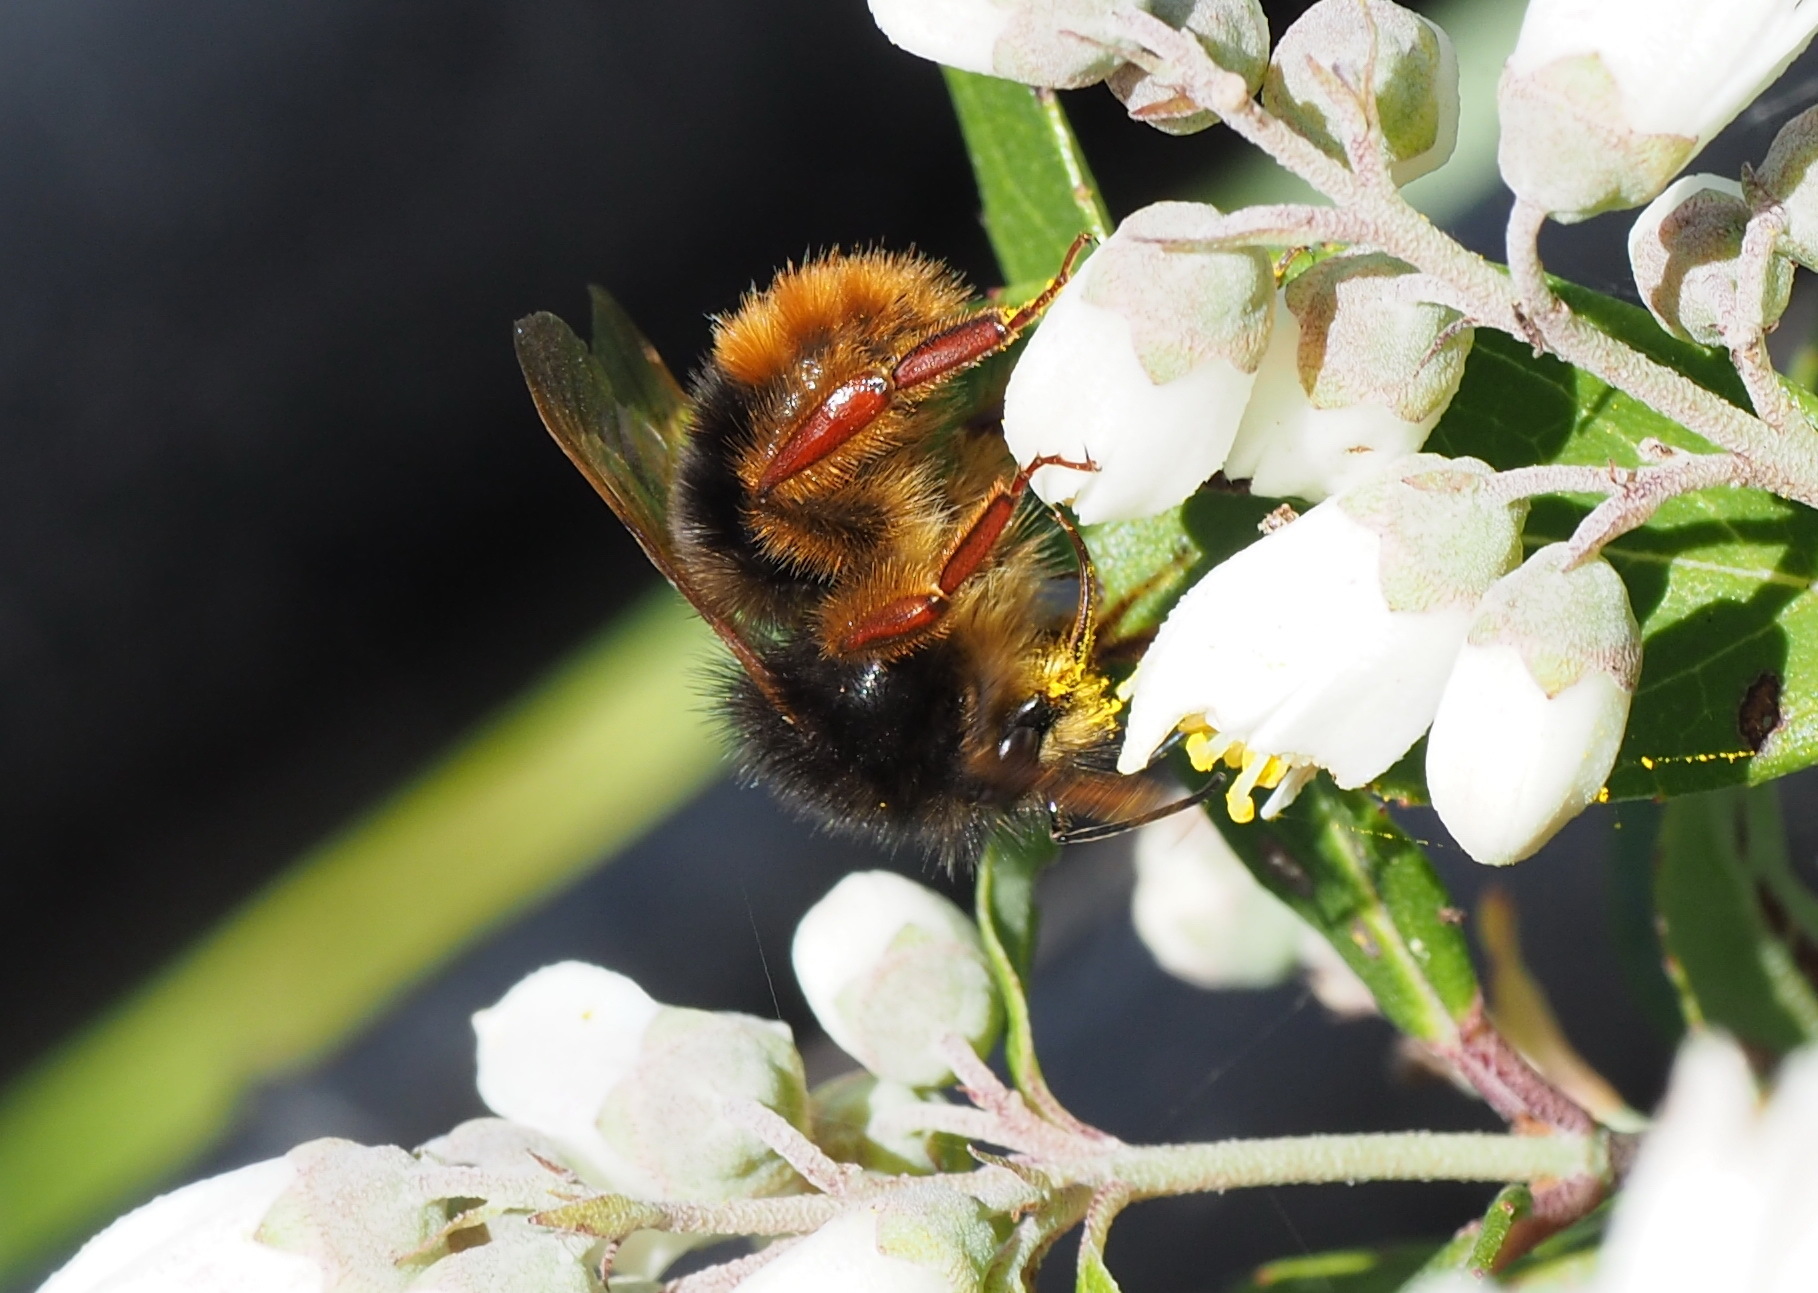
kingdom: Animalia
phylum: Arthropoda
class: Insecta
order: Hymenoptera
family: Apidae
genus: Bombus
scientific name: Bombus flavescens
